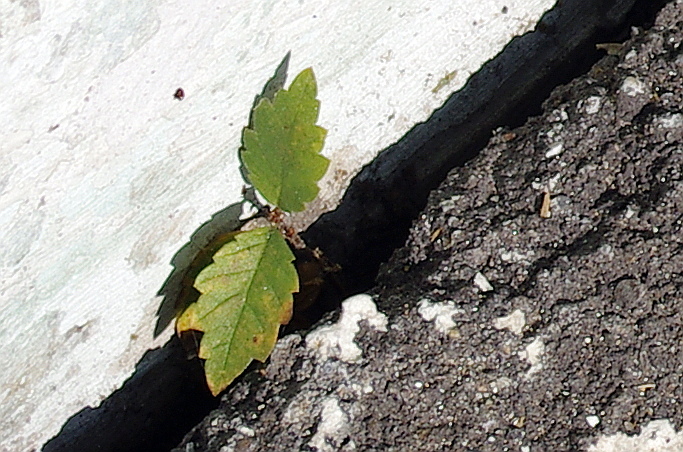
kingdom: Plantae
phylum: Tracheophyta
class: Magnoliopsida
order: Rosales
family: Ulmaceae
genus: Ulmus
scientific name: Ulmus pumila
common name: Siberian elm
